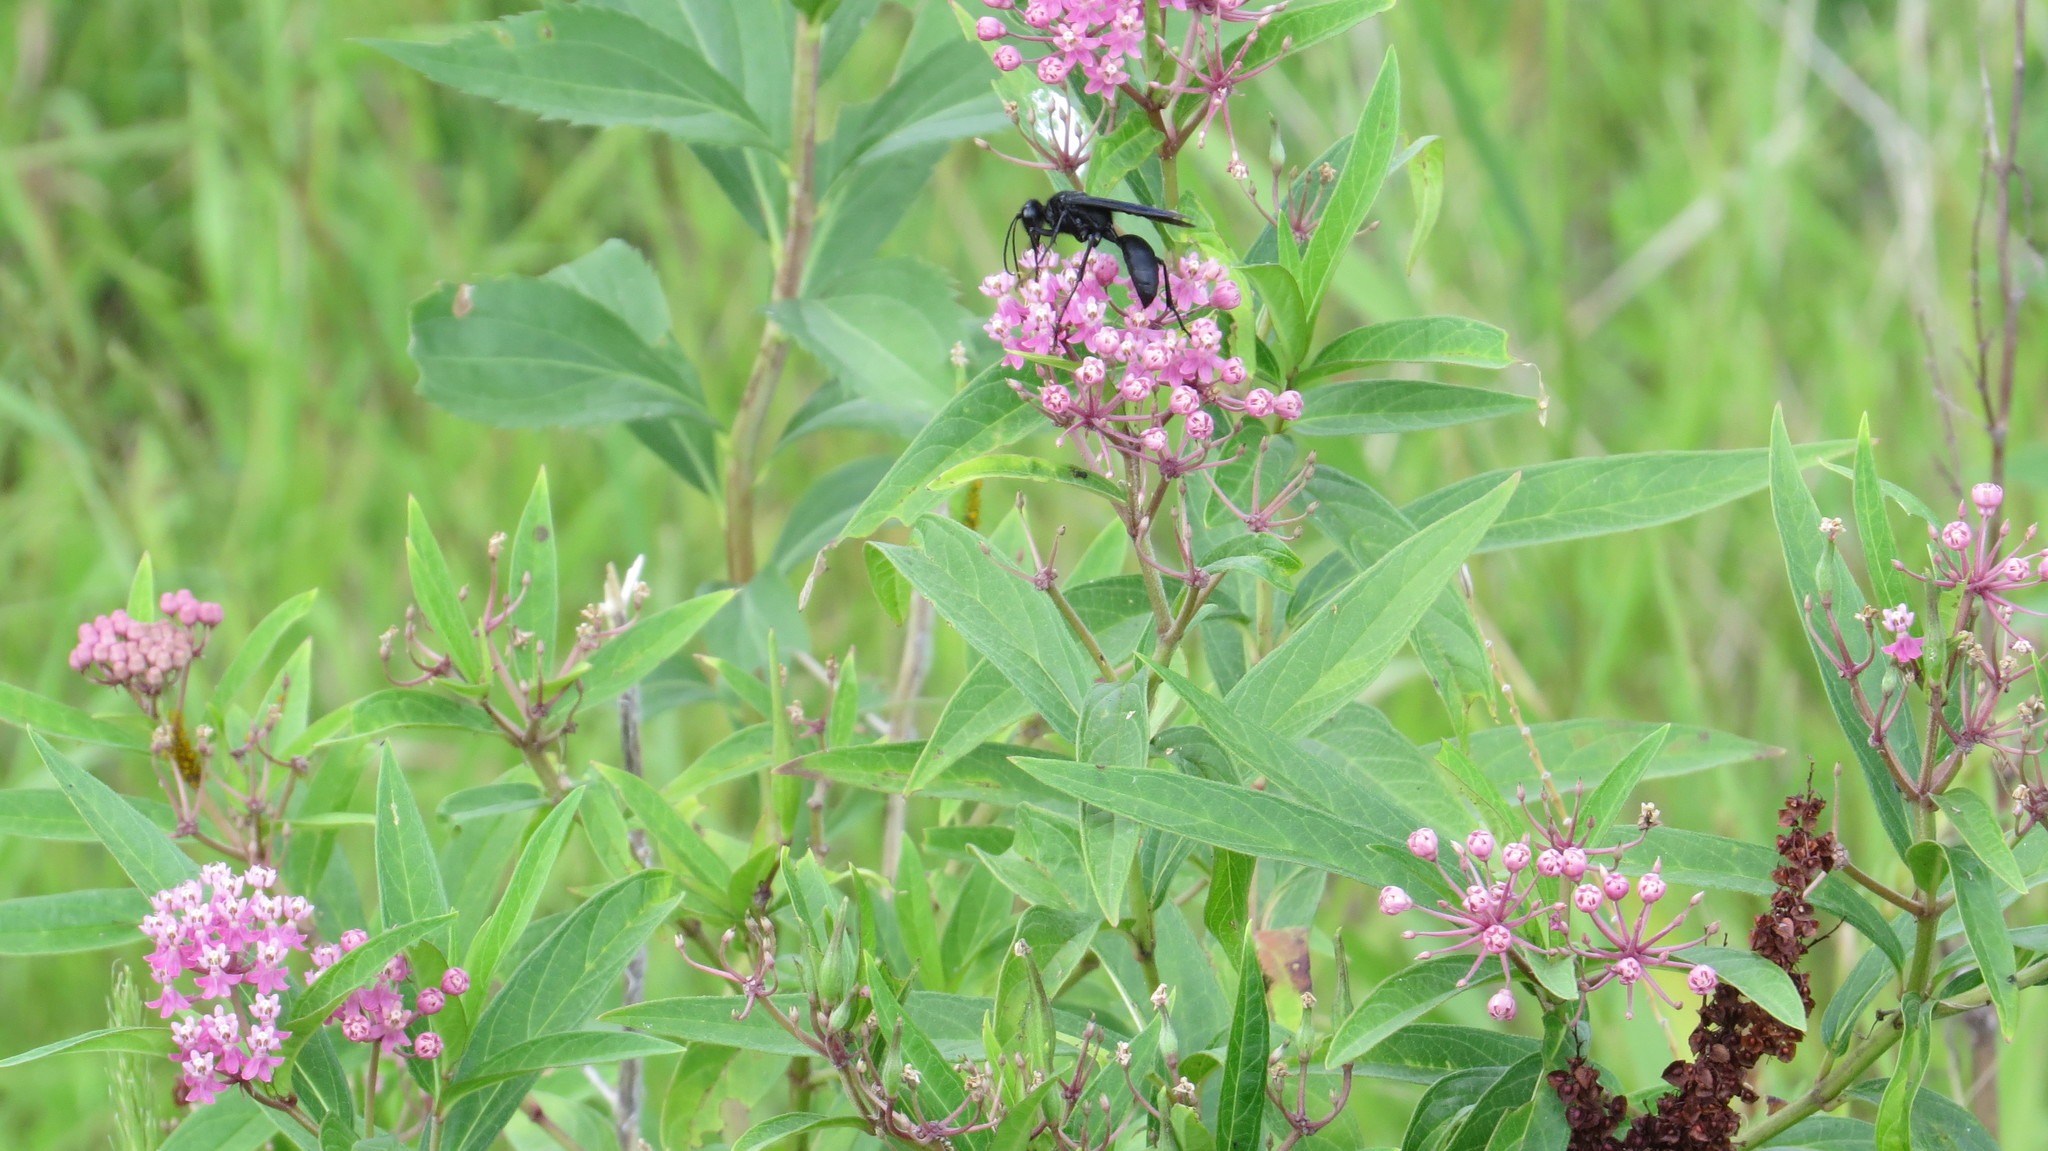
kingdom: Plantae
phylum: Tracheophyta
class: Magnoliopsida
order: Gentianales
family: Apocynaceae
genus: Asclepias
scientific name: Asclepias incarnata
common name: Swamp milkweed
